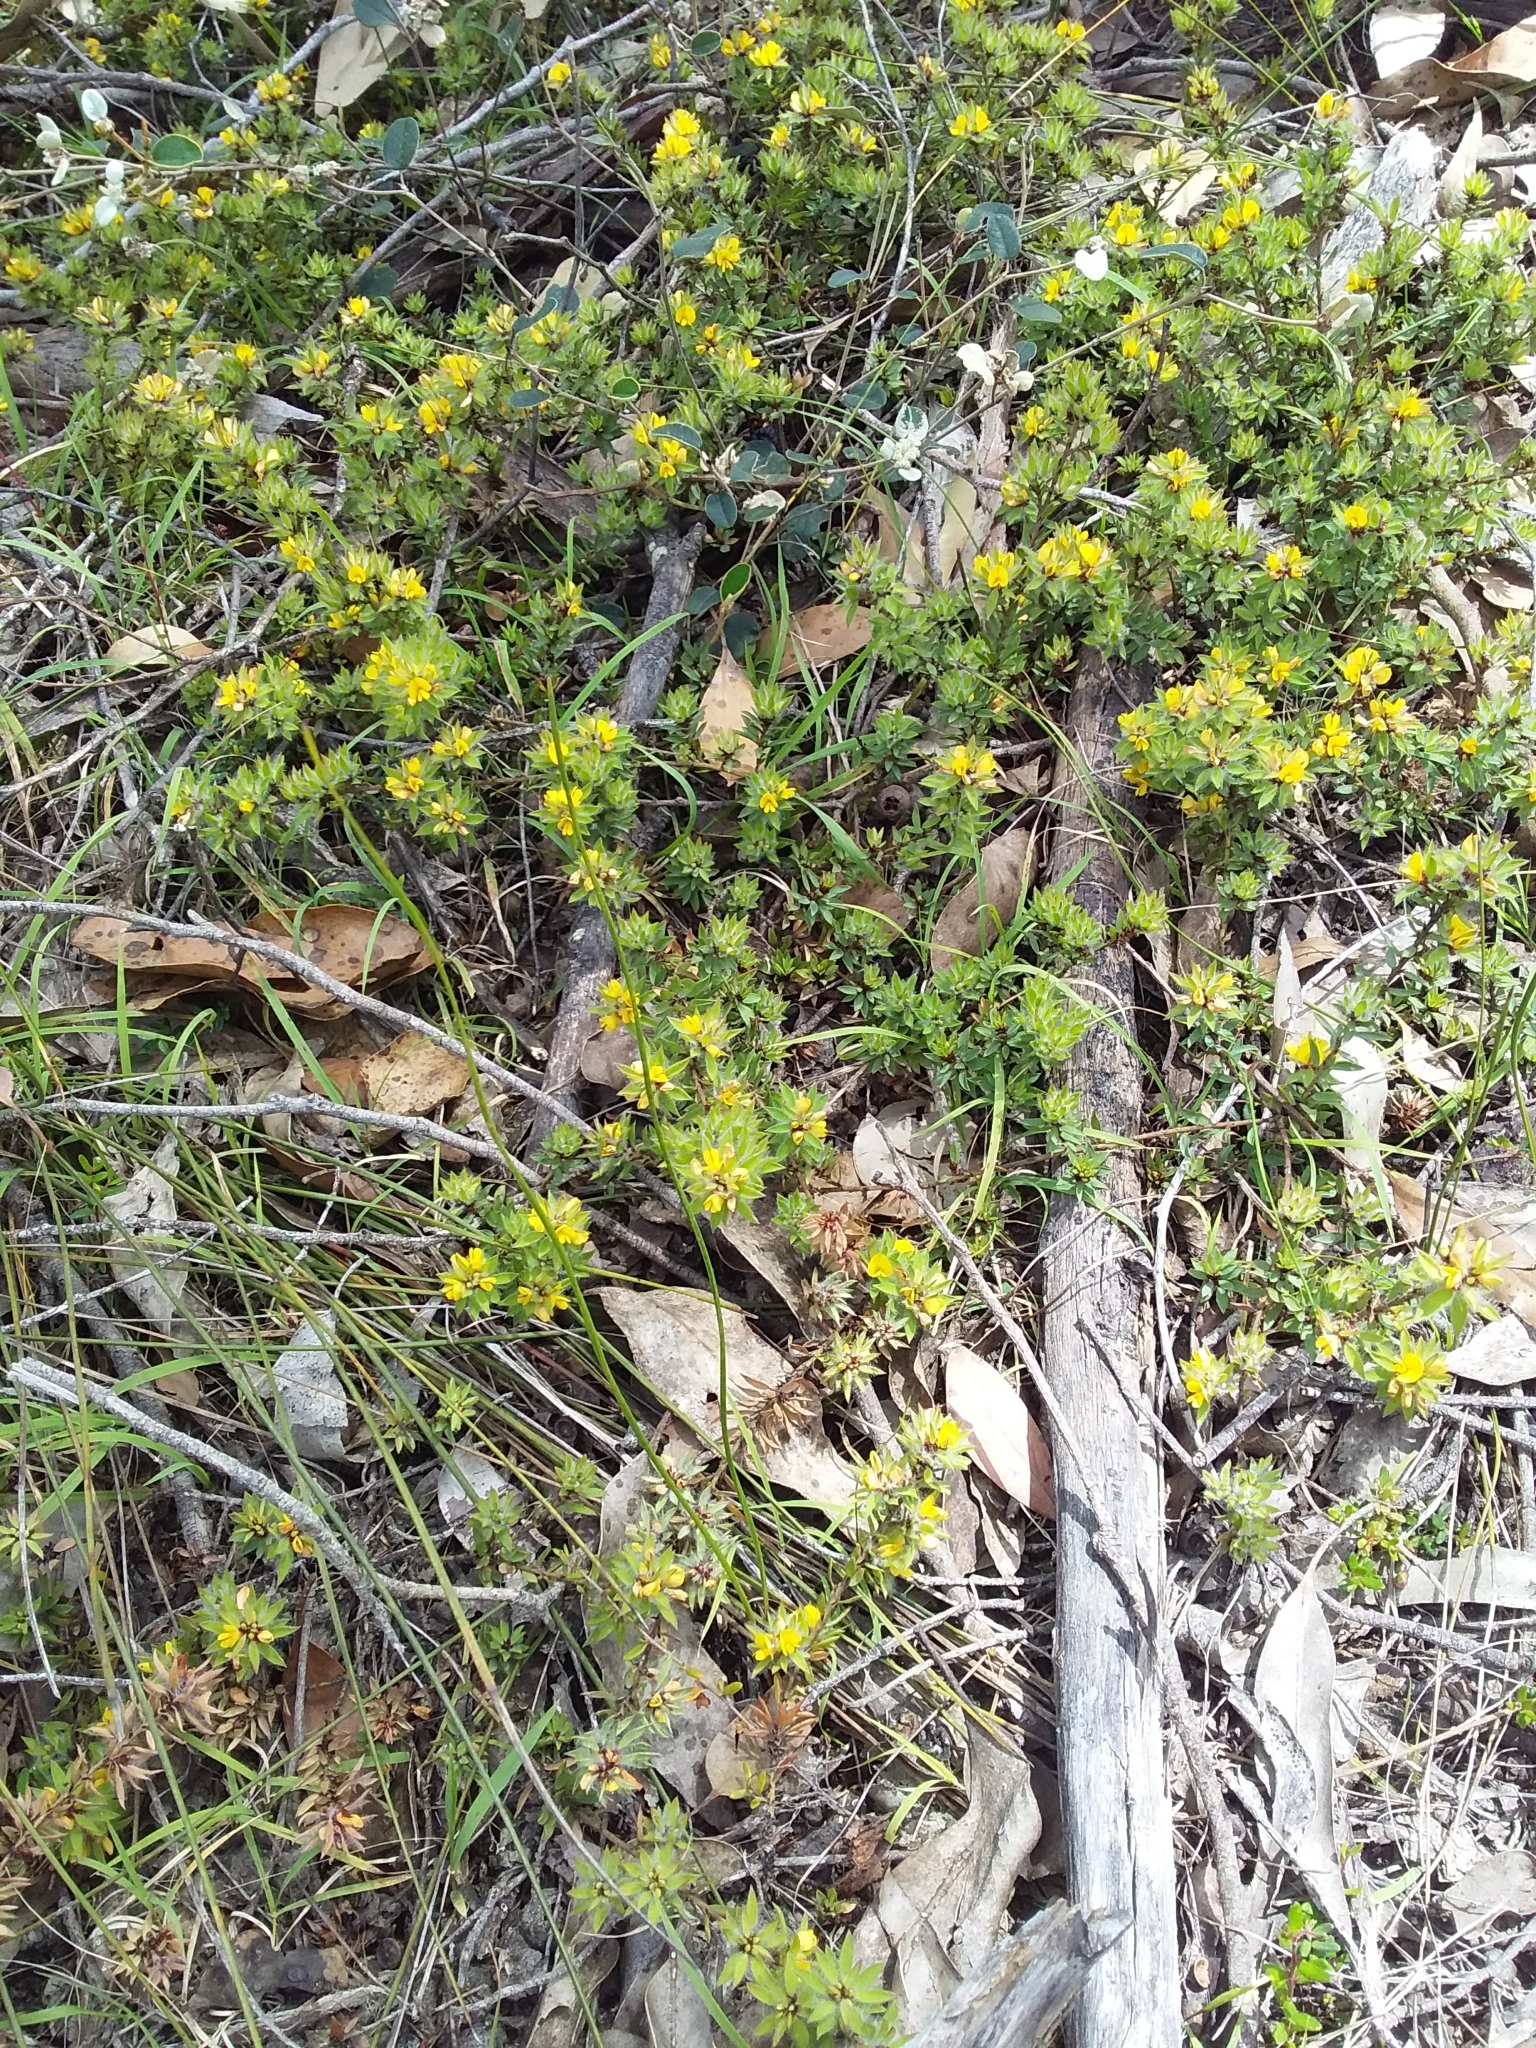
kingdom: Plantae
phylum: Tracheophyta
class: Magnoliopsida
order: Fabales
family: Fabaceae
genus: Pultenaea
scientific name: Pultenaea pedunculata
